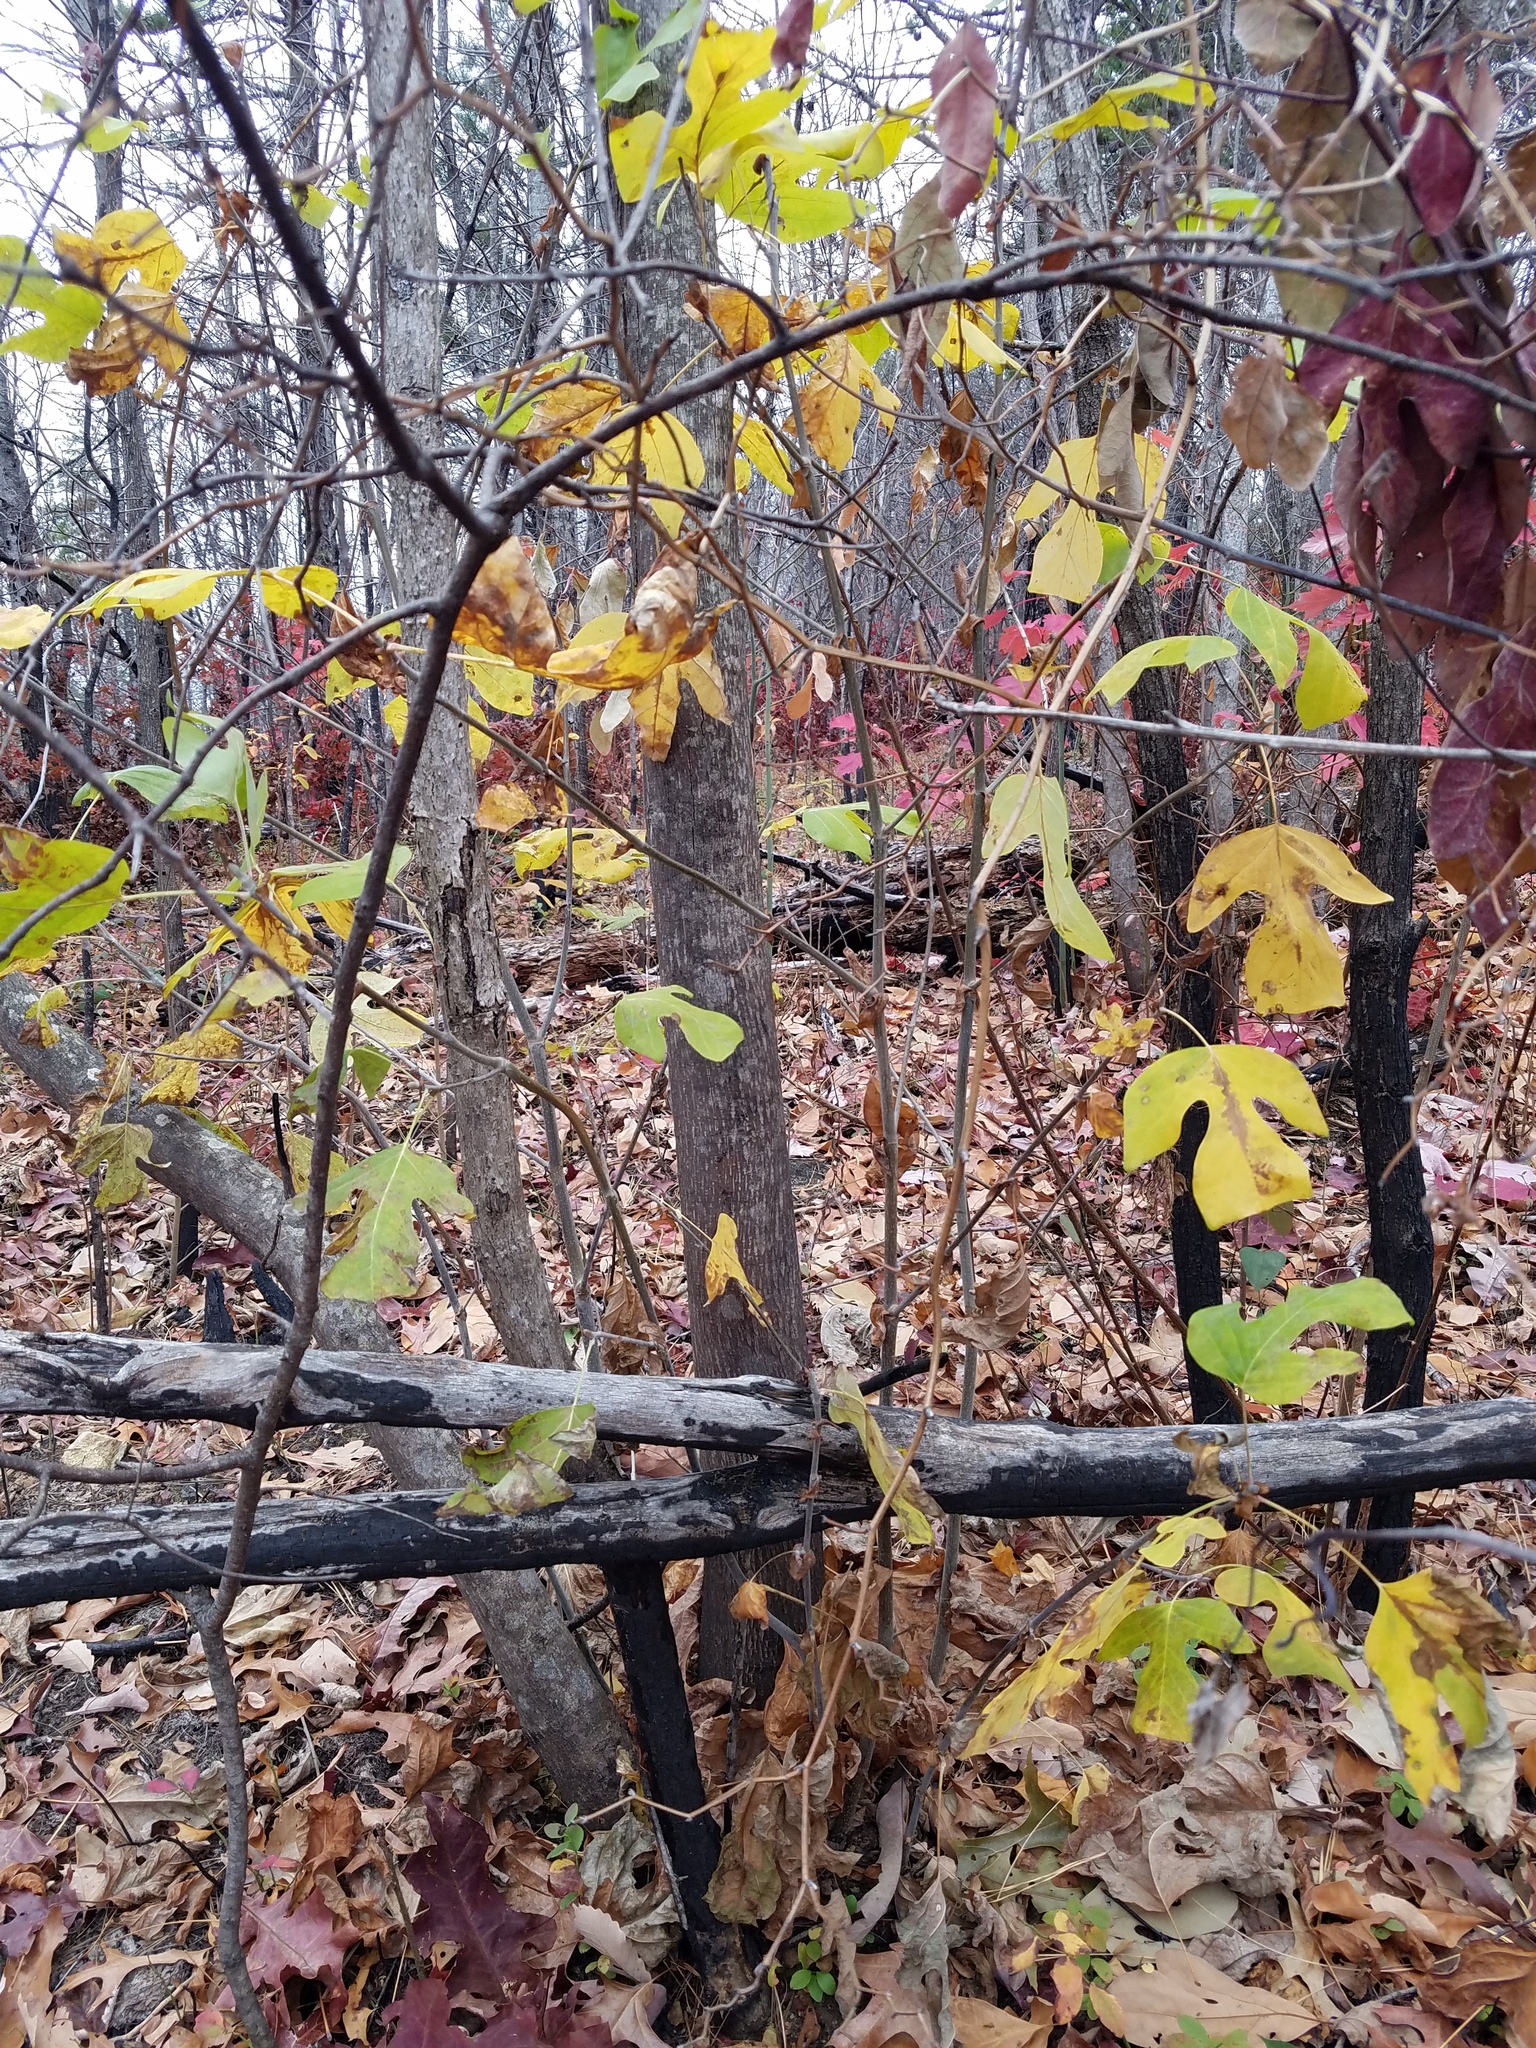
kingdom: Plantae
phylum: Tracheophyta
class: Magnoliopsida
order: Magnoliales
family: Magnoliaceae
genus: Liriodendron
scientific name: Liriodendron tulipifera
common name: Tulip tree
